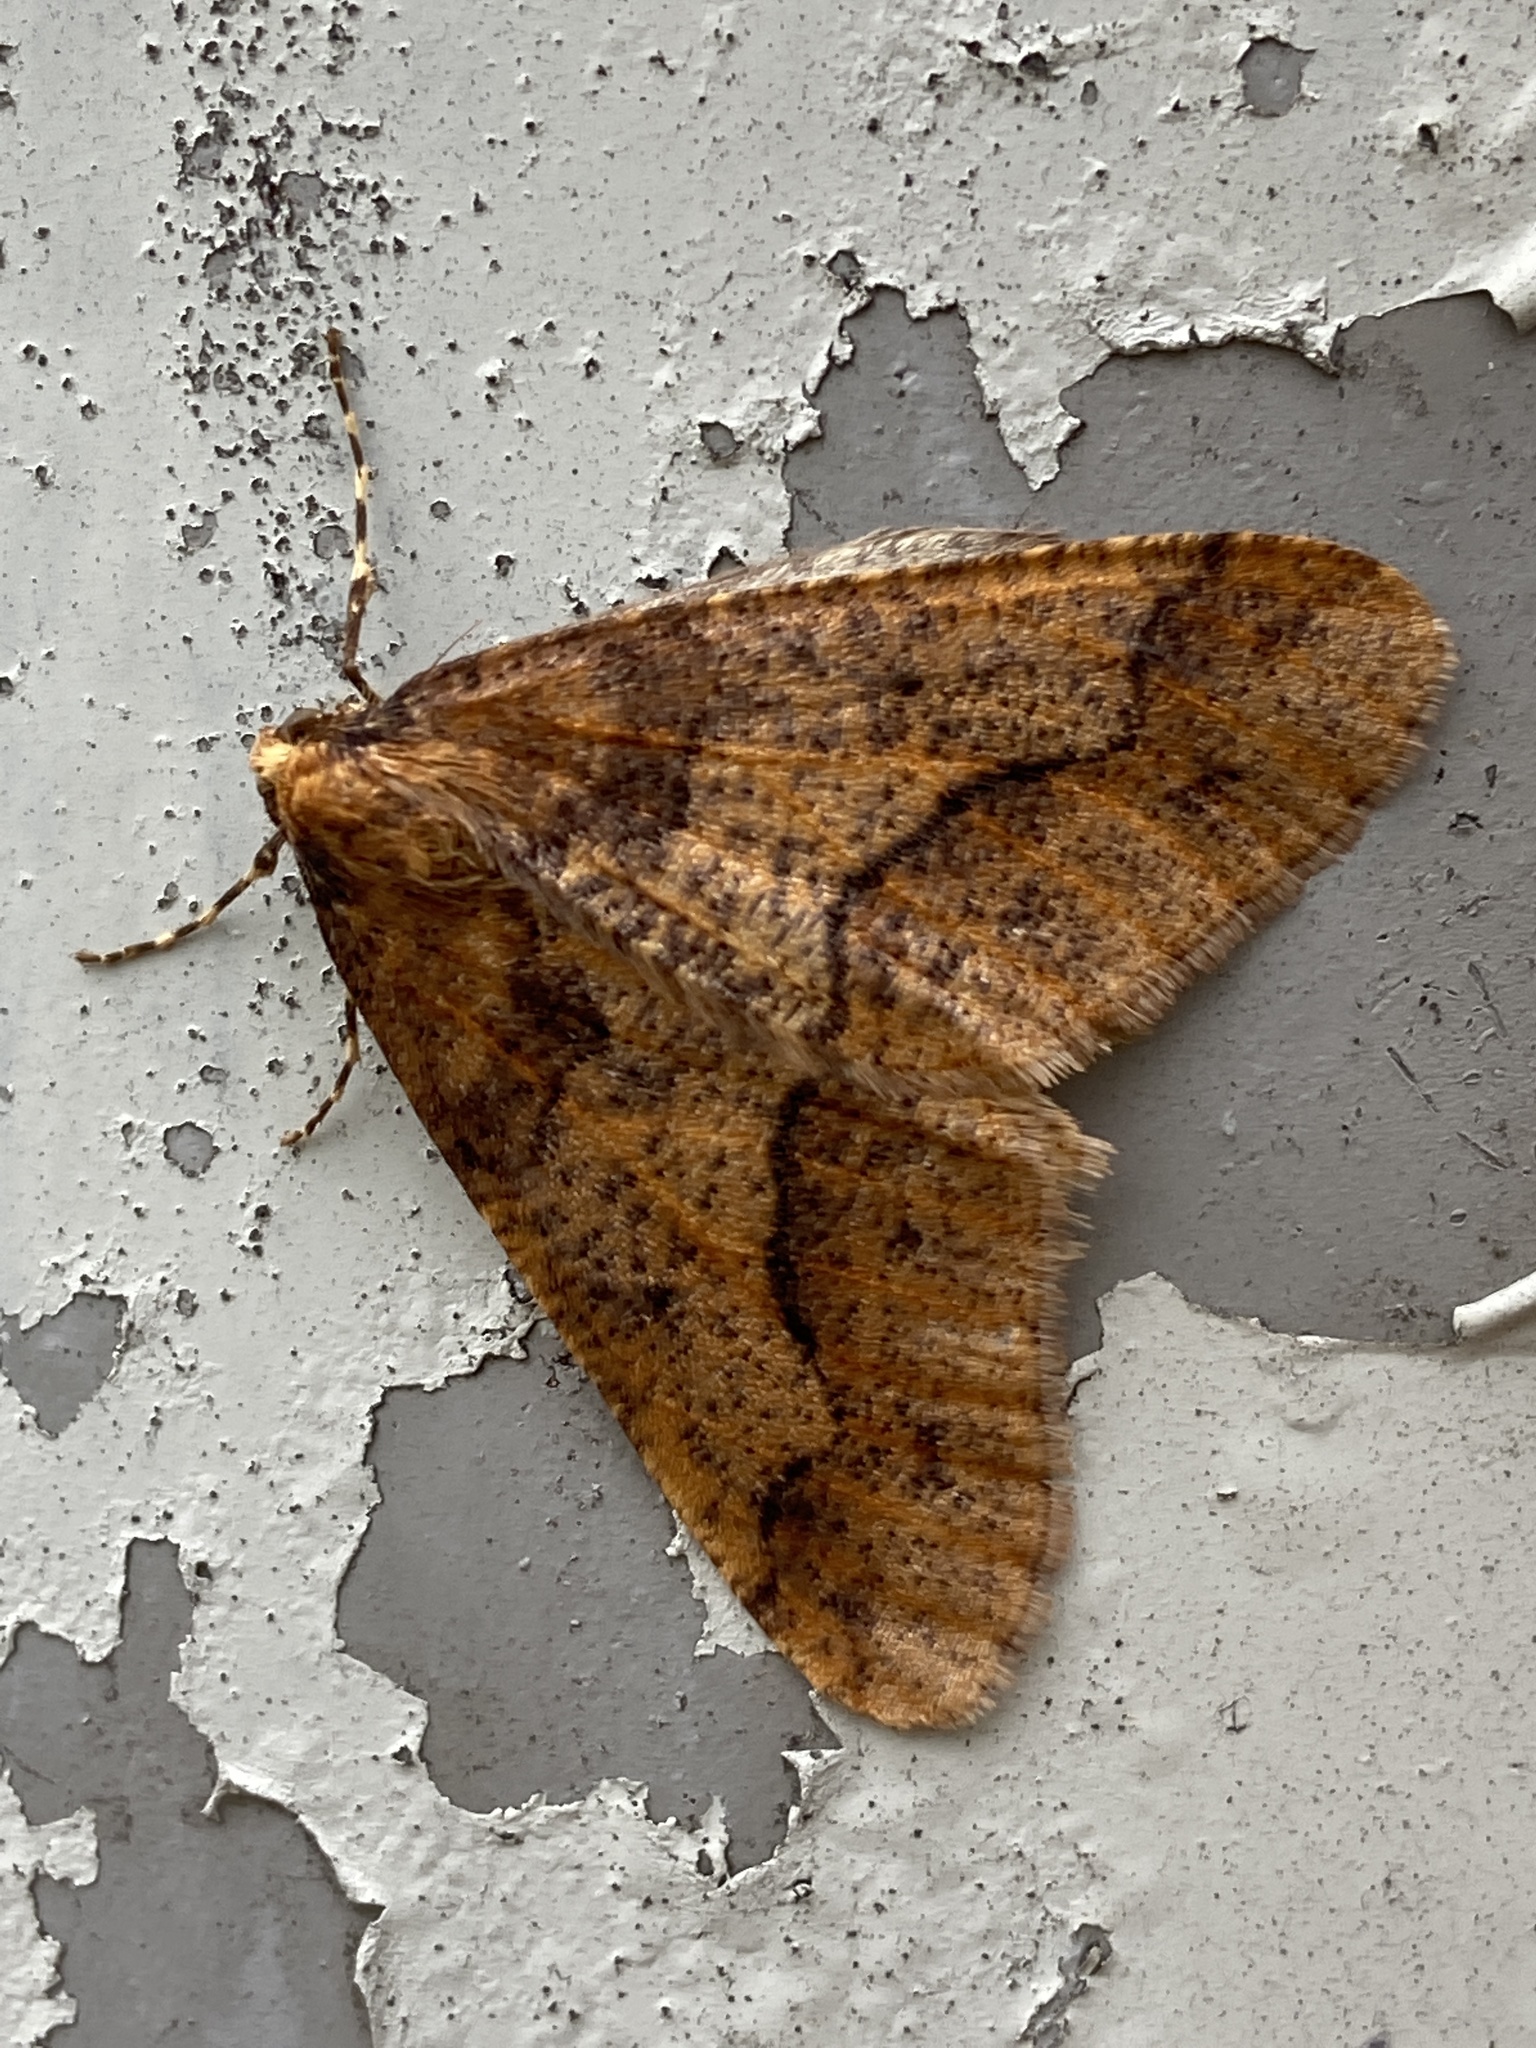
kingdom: Animalia
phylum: Arthropoda
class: Insecta
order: Lepidoptera
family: Geometridae
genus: Erannis
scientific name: Erannis defoliaria
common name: Mottled umber
